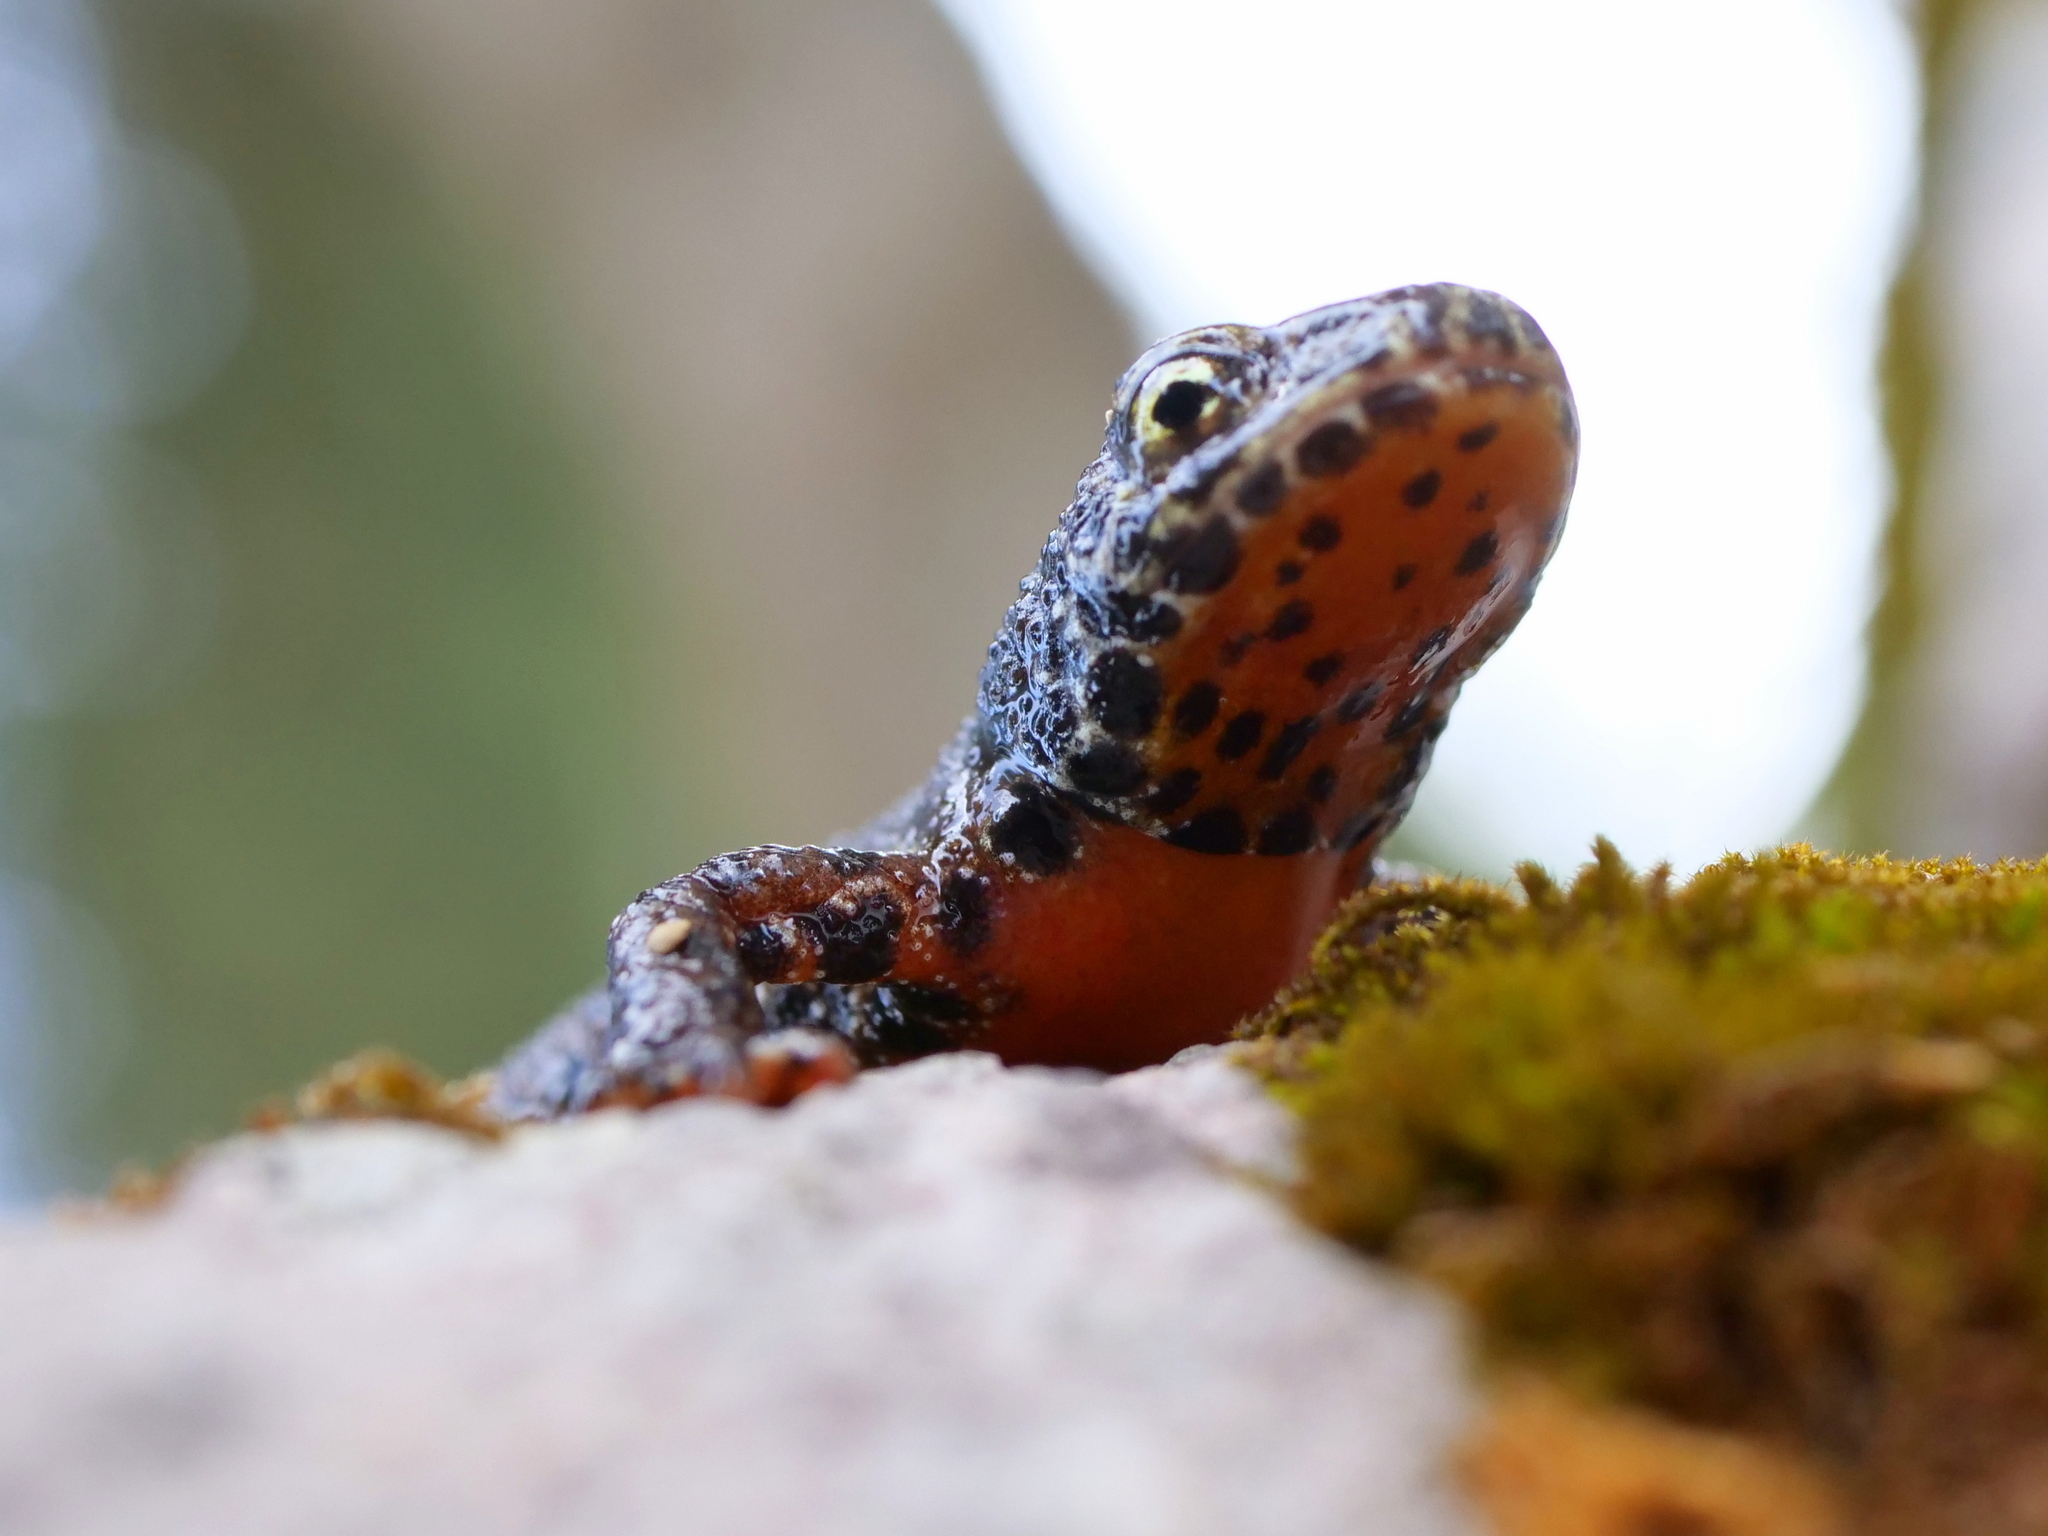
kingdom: Animalia
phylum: Chordata
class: Amphibia
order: Caudata
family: Salamandridae
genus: Ichthyosaura
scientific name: Ichthyosaura alpestris
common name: Alpine newt
